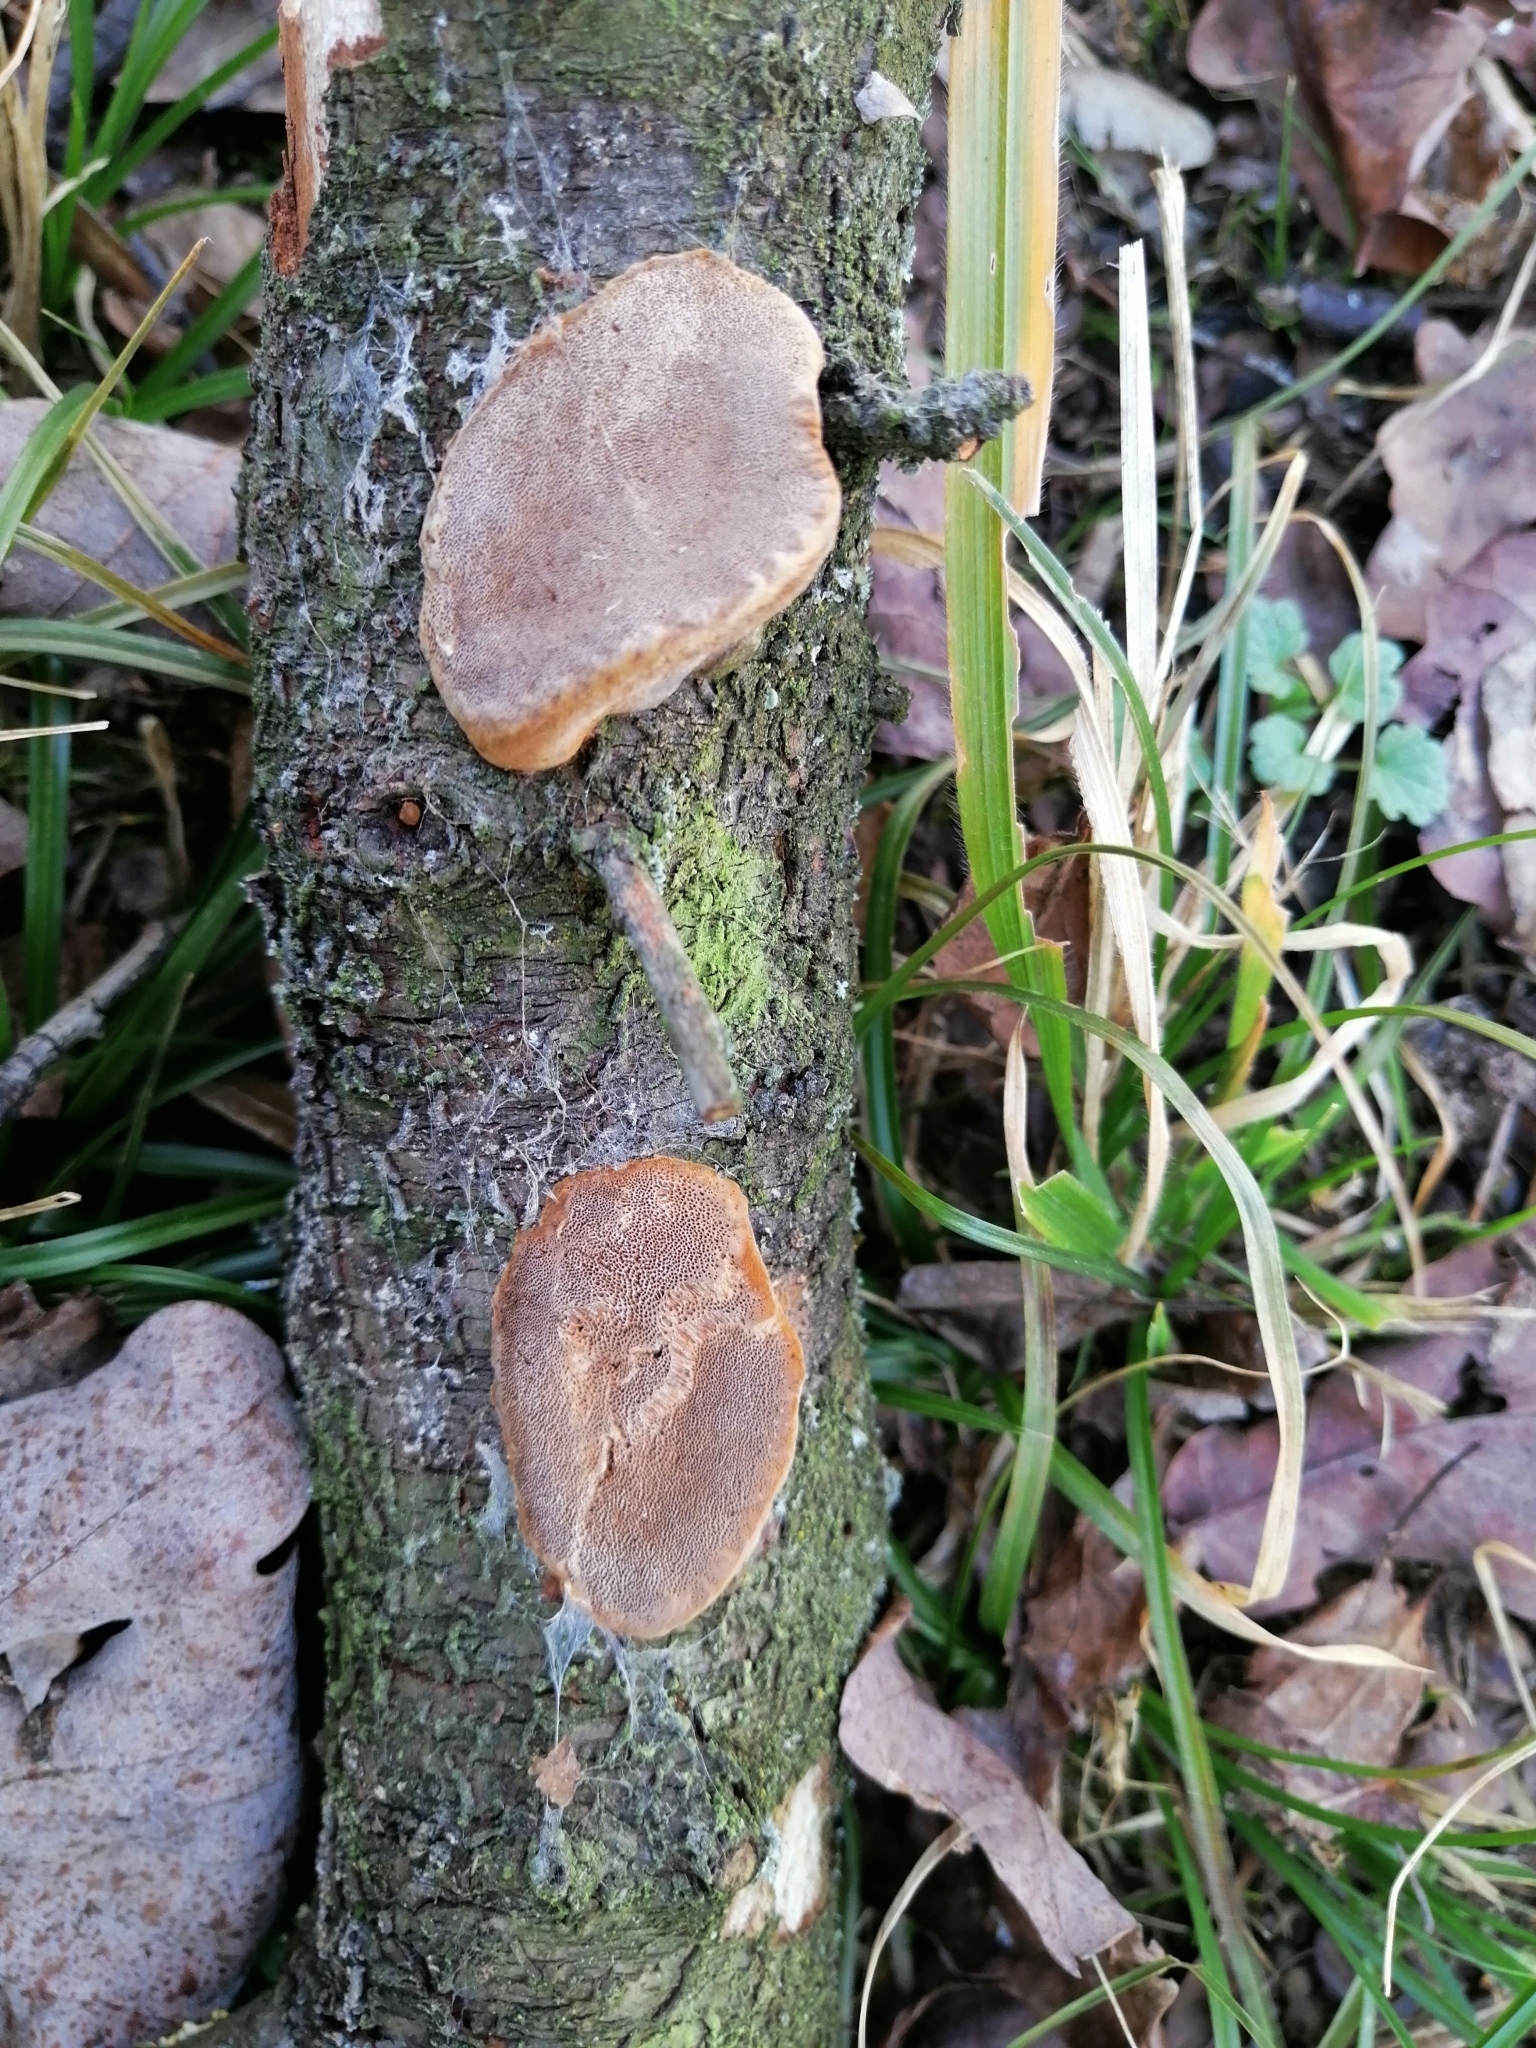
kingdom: Fungi
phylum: Basidiomycota
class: Agaricomycetes
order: Hymenochaetales
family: Hymenochaetaceae
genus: Phellinus
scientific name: Phellinus pomaceus
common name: Cushion bracket
